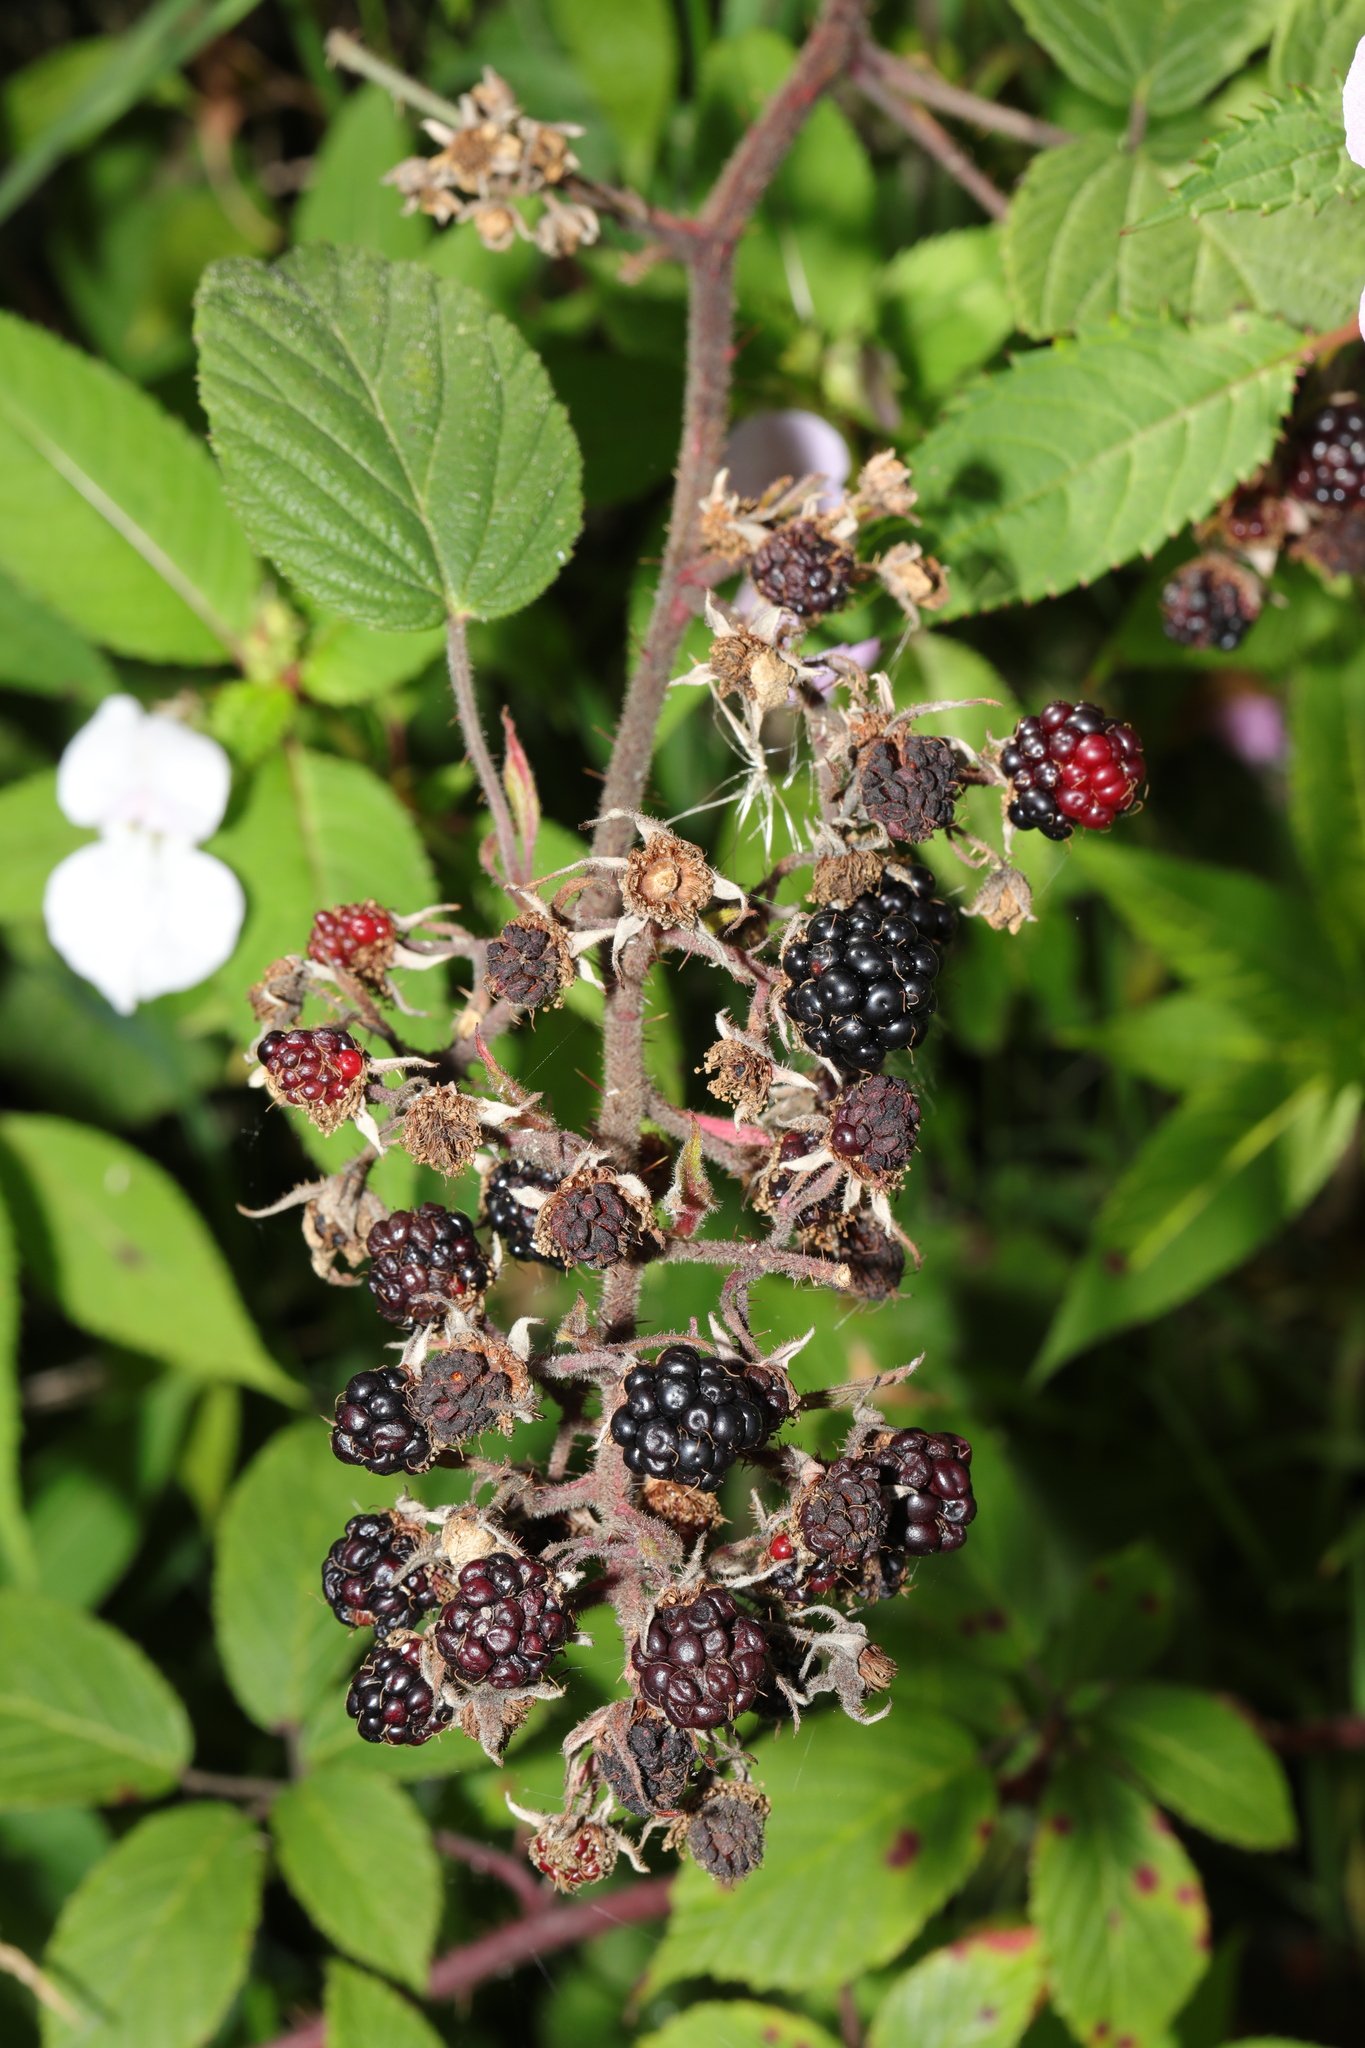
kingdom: Plantae
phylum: Tracheophyta
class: Magnoliopsida
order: Rosales
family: Rosaceae
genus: Rubus
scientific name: Rubus dasyphyllus
